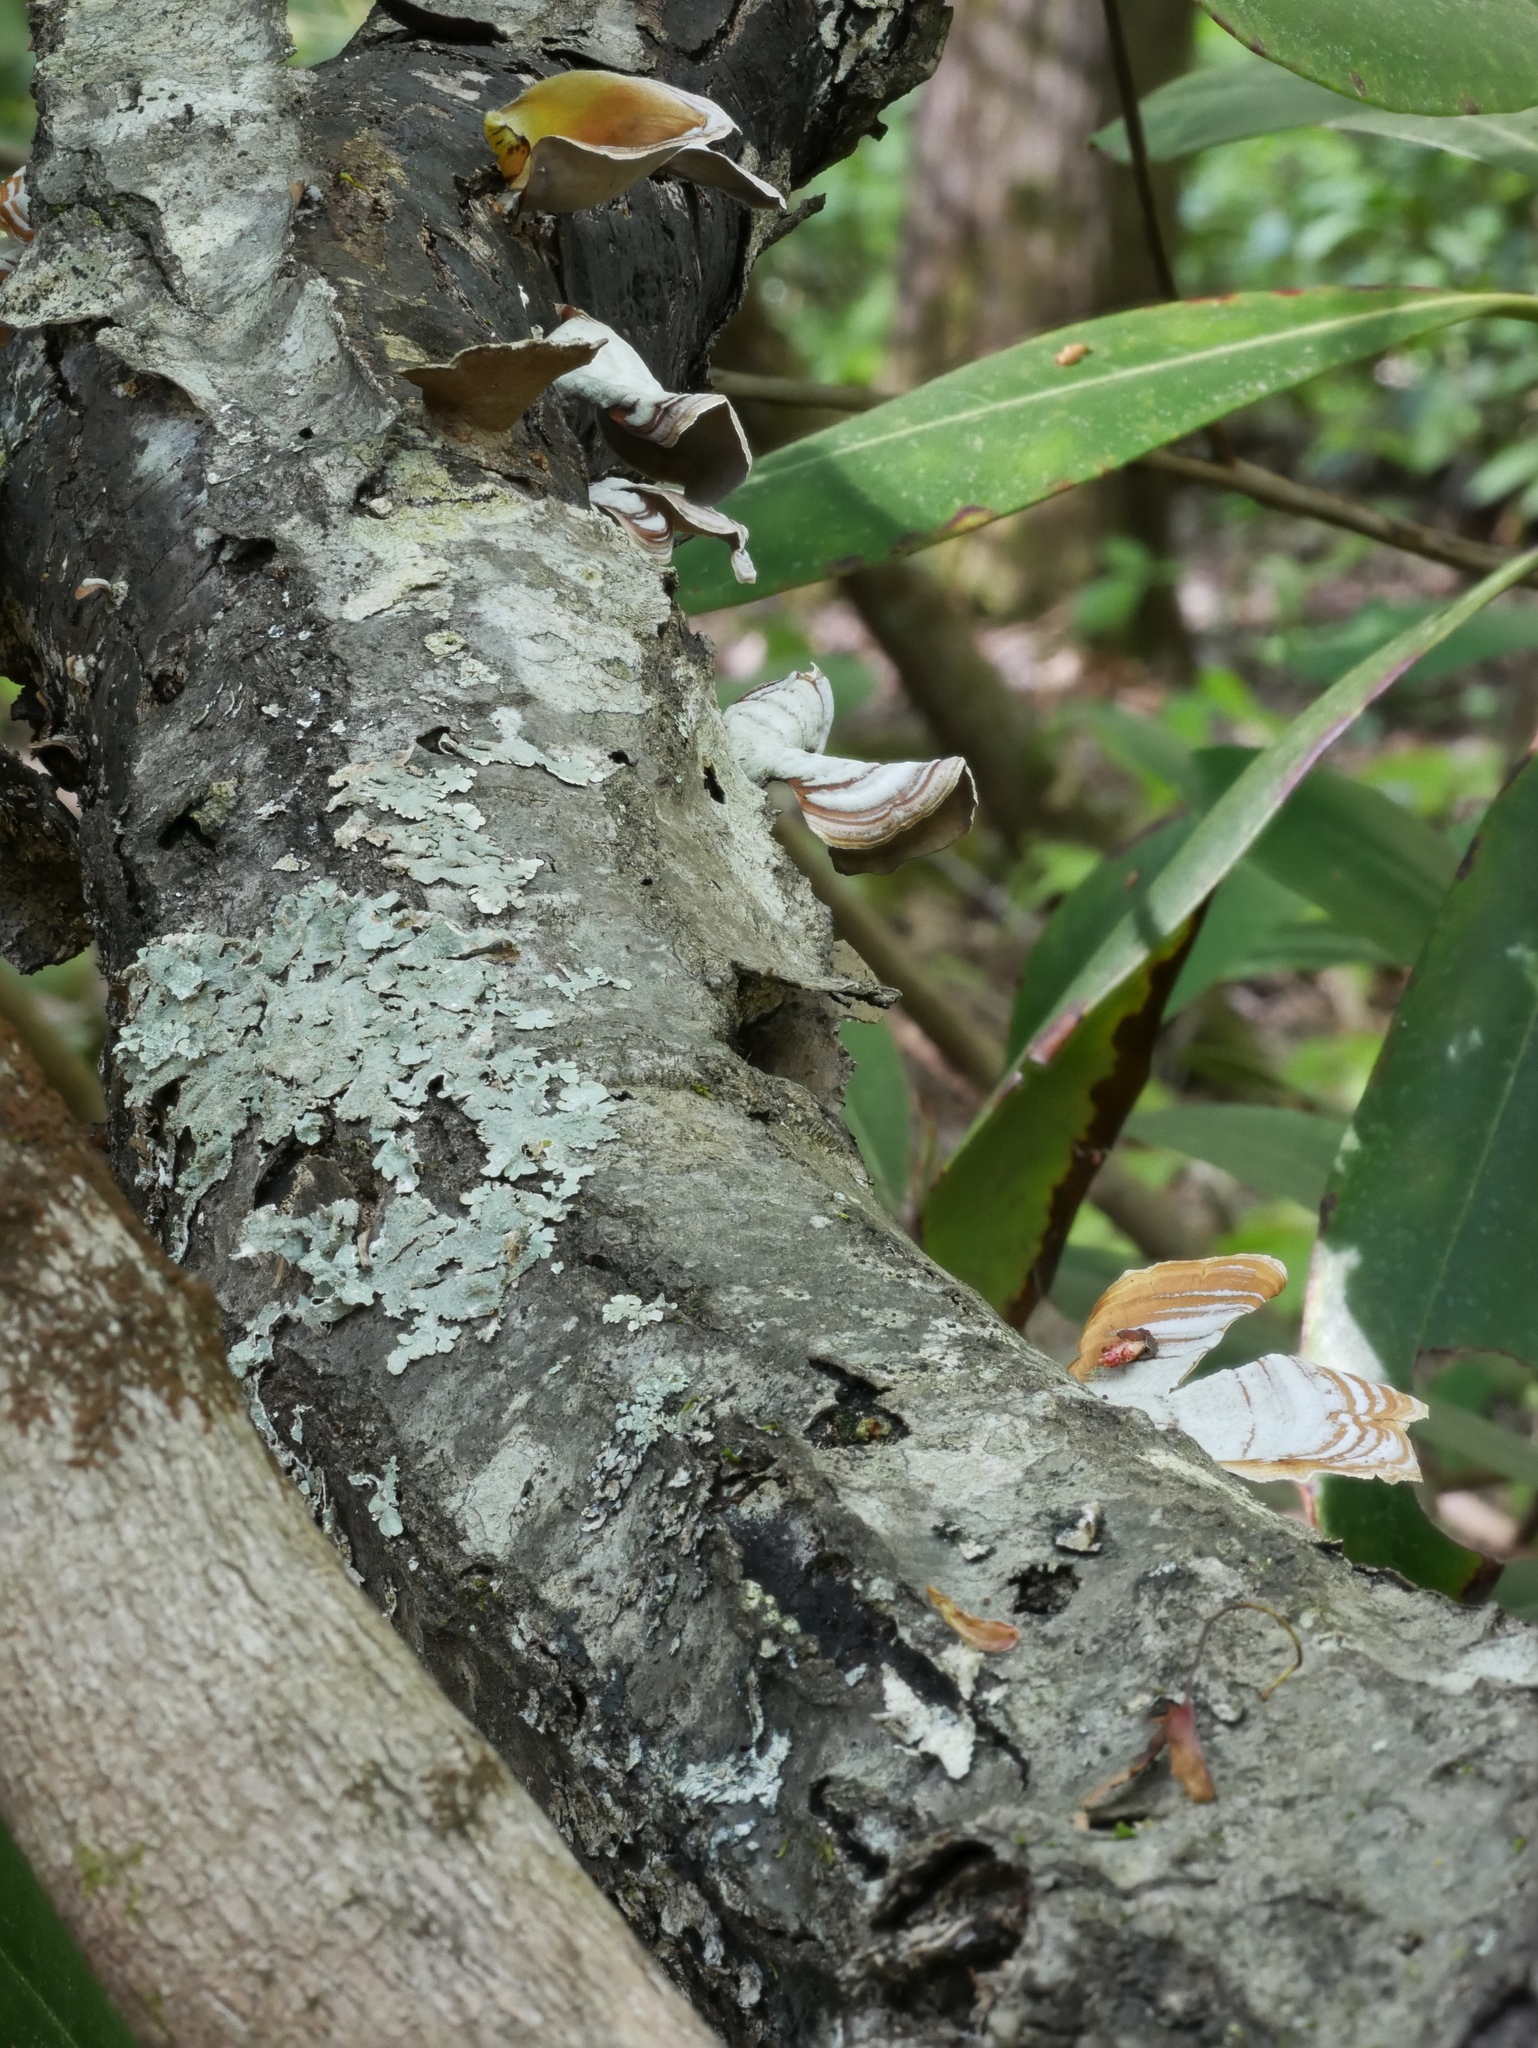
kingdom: Fungi
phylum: Basidiomycota
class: Agaricomycetes
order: Russulales
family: Stereaceae
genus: Stereum
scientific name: Stereum lobatum
